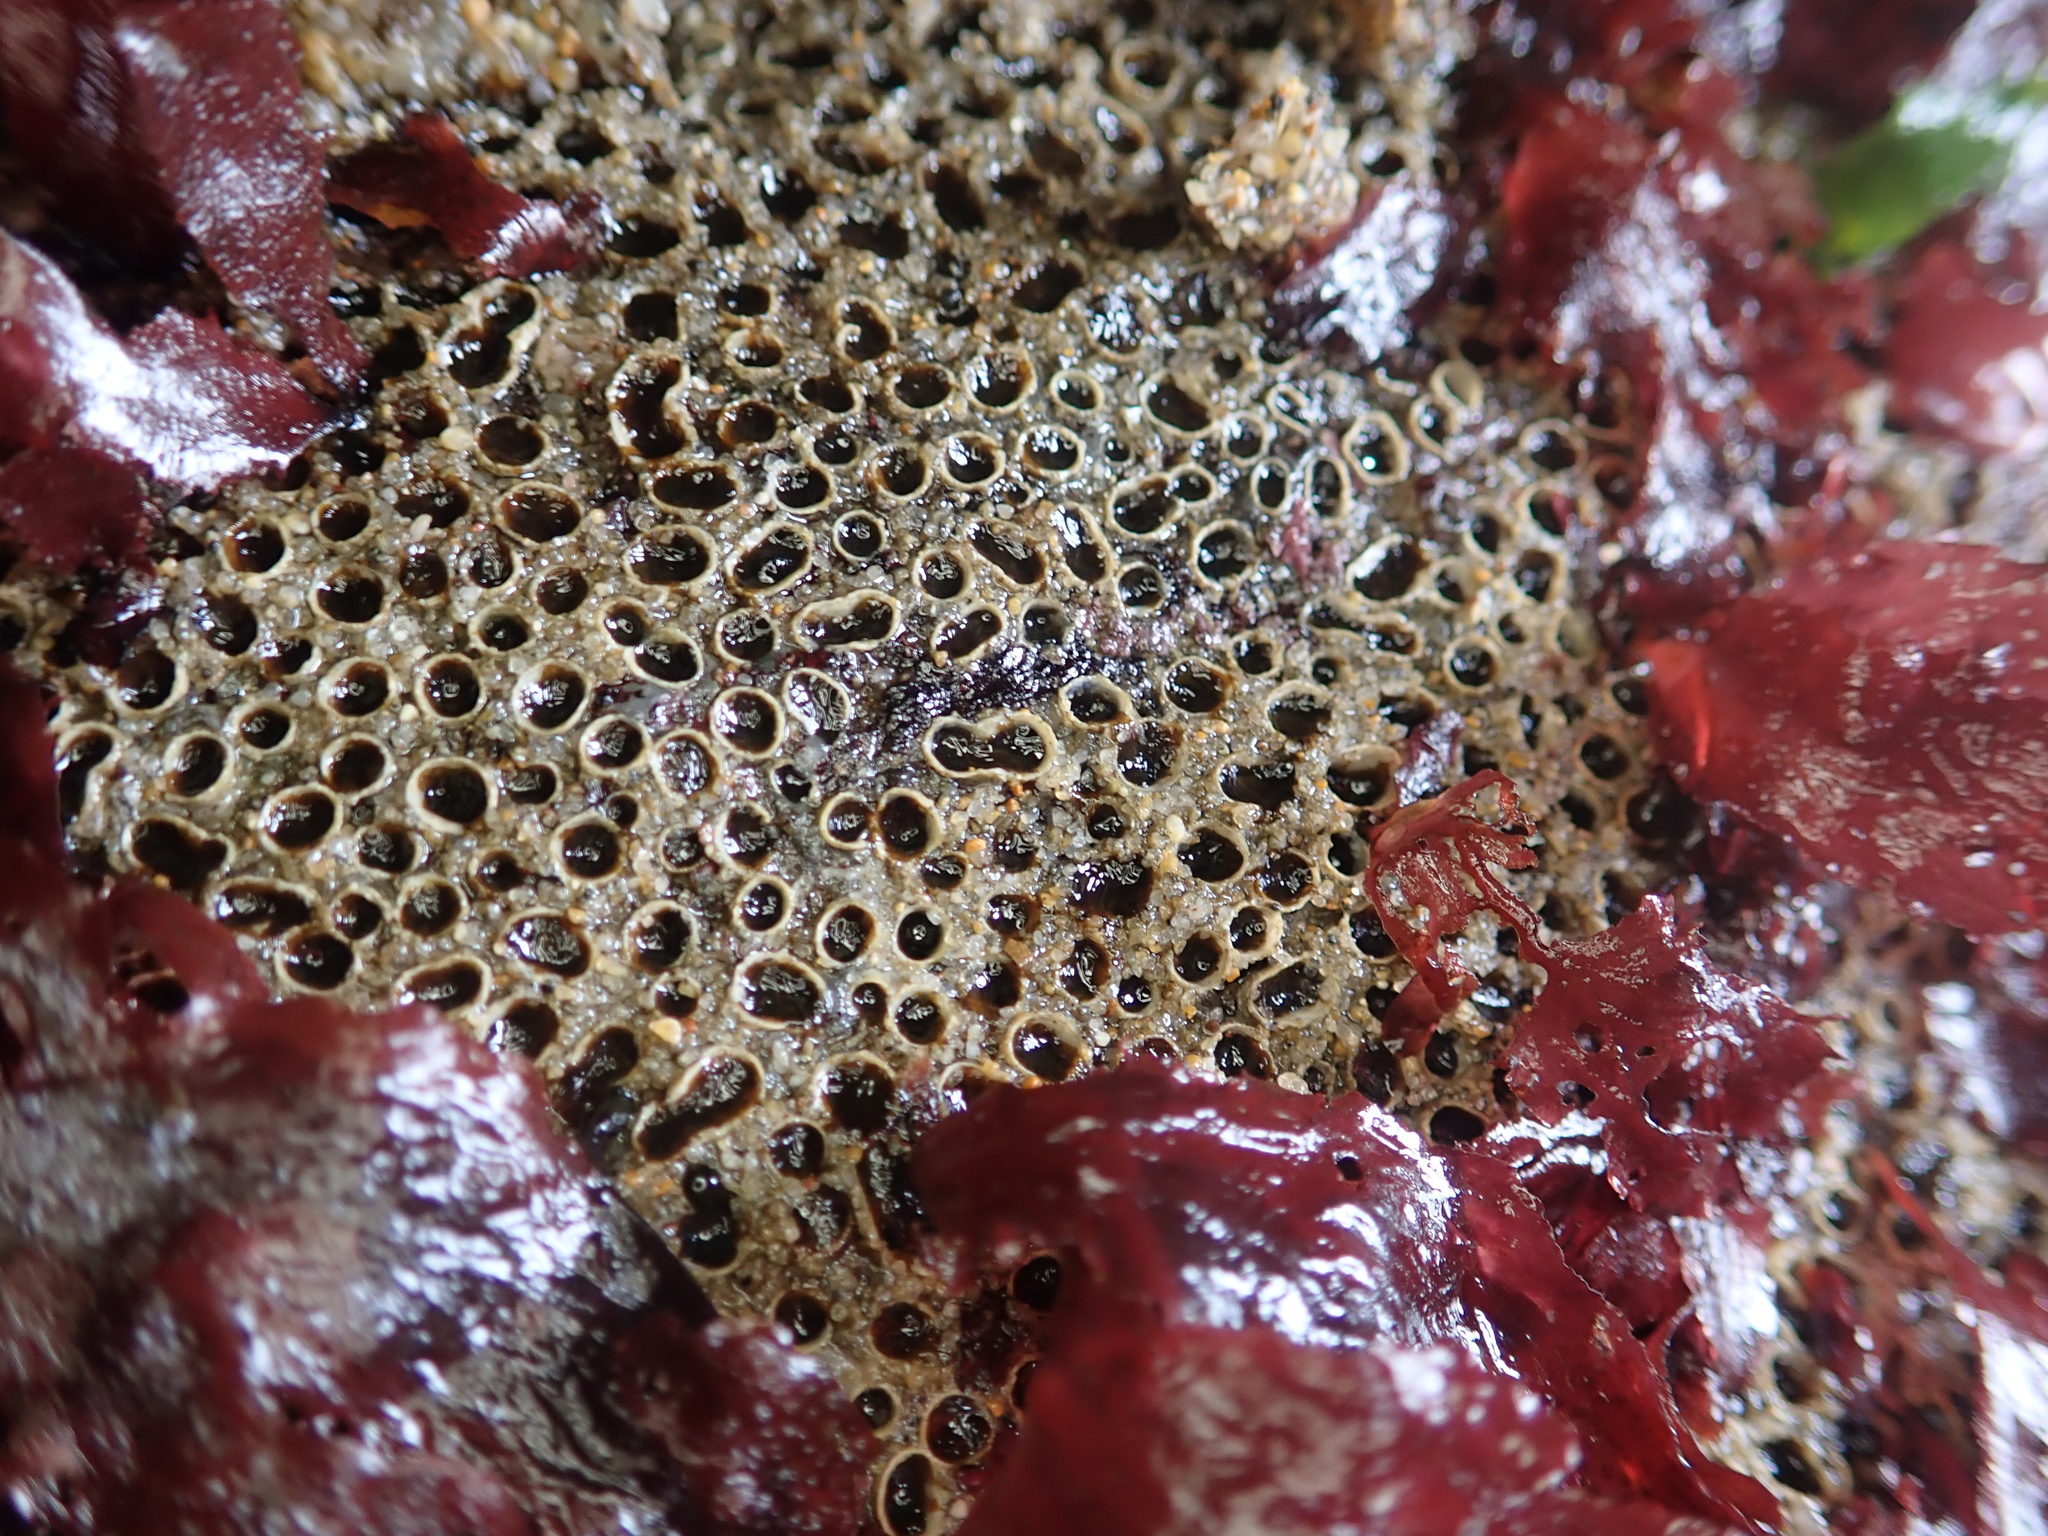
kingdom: Animalia
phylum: Annelida
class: Polychaeta
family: Cirratulidae
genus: Dodecaceria
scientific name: Dodecaceria pacifica
